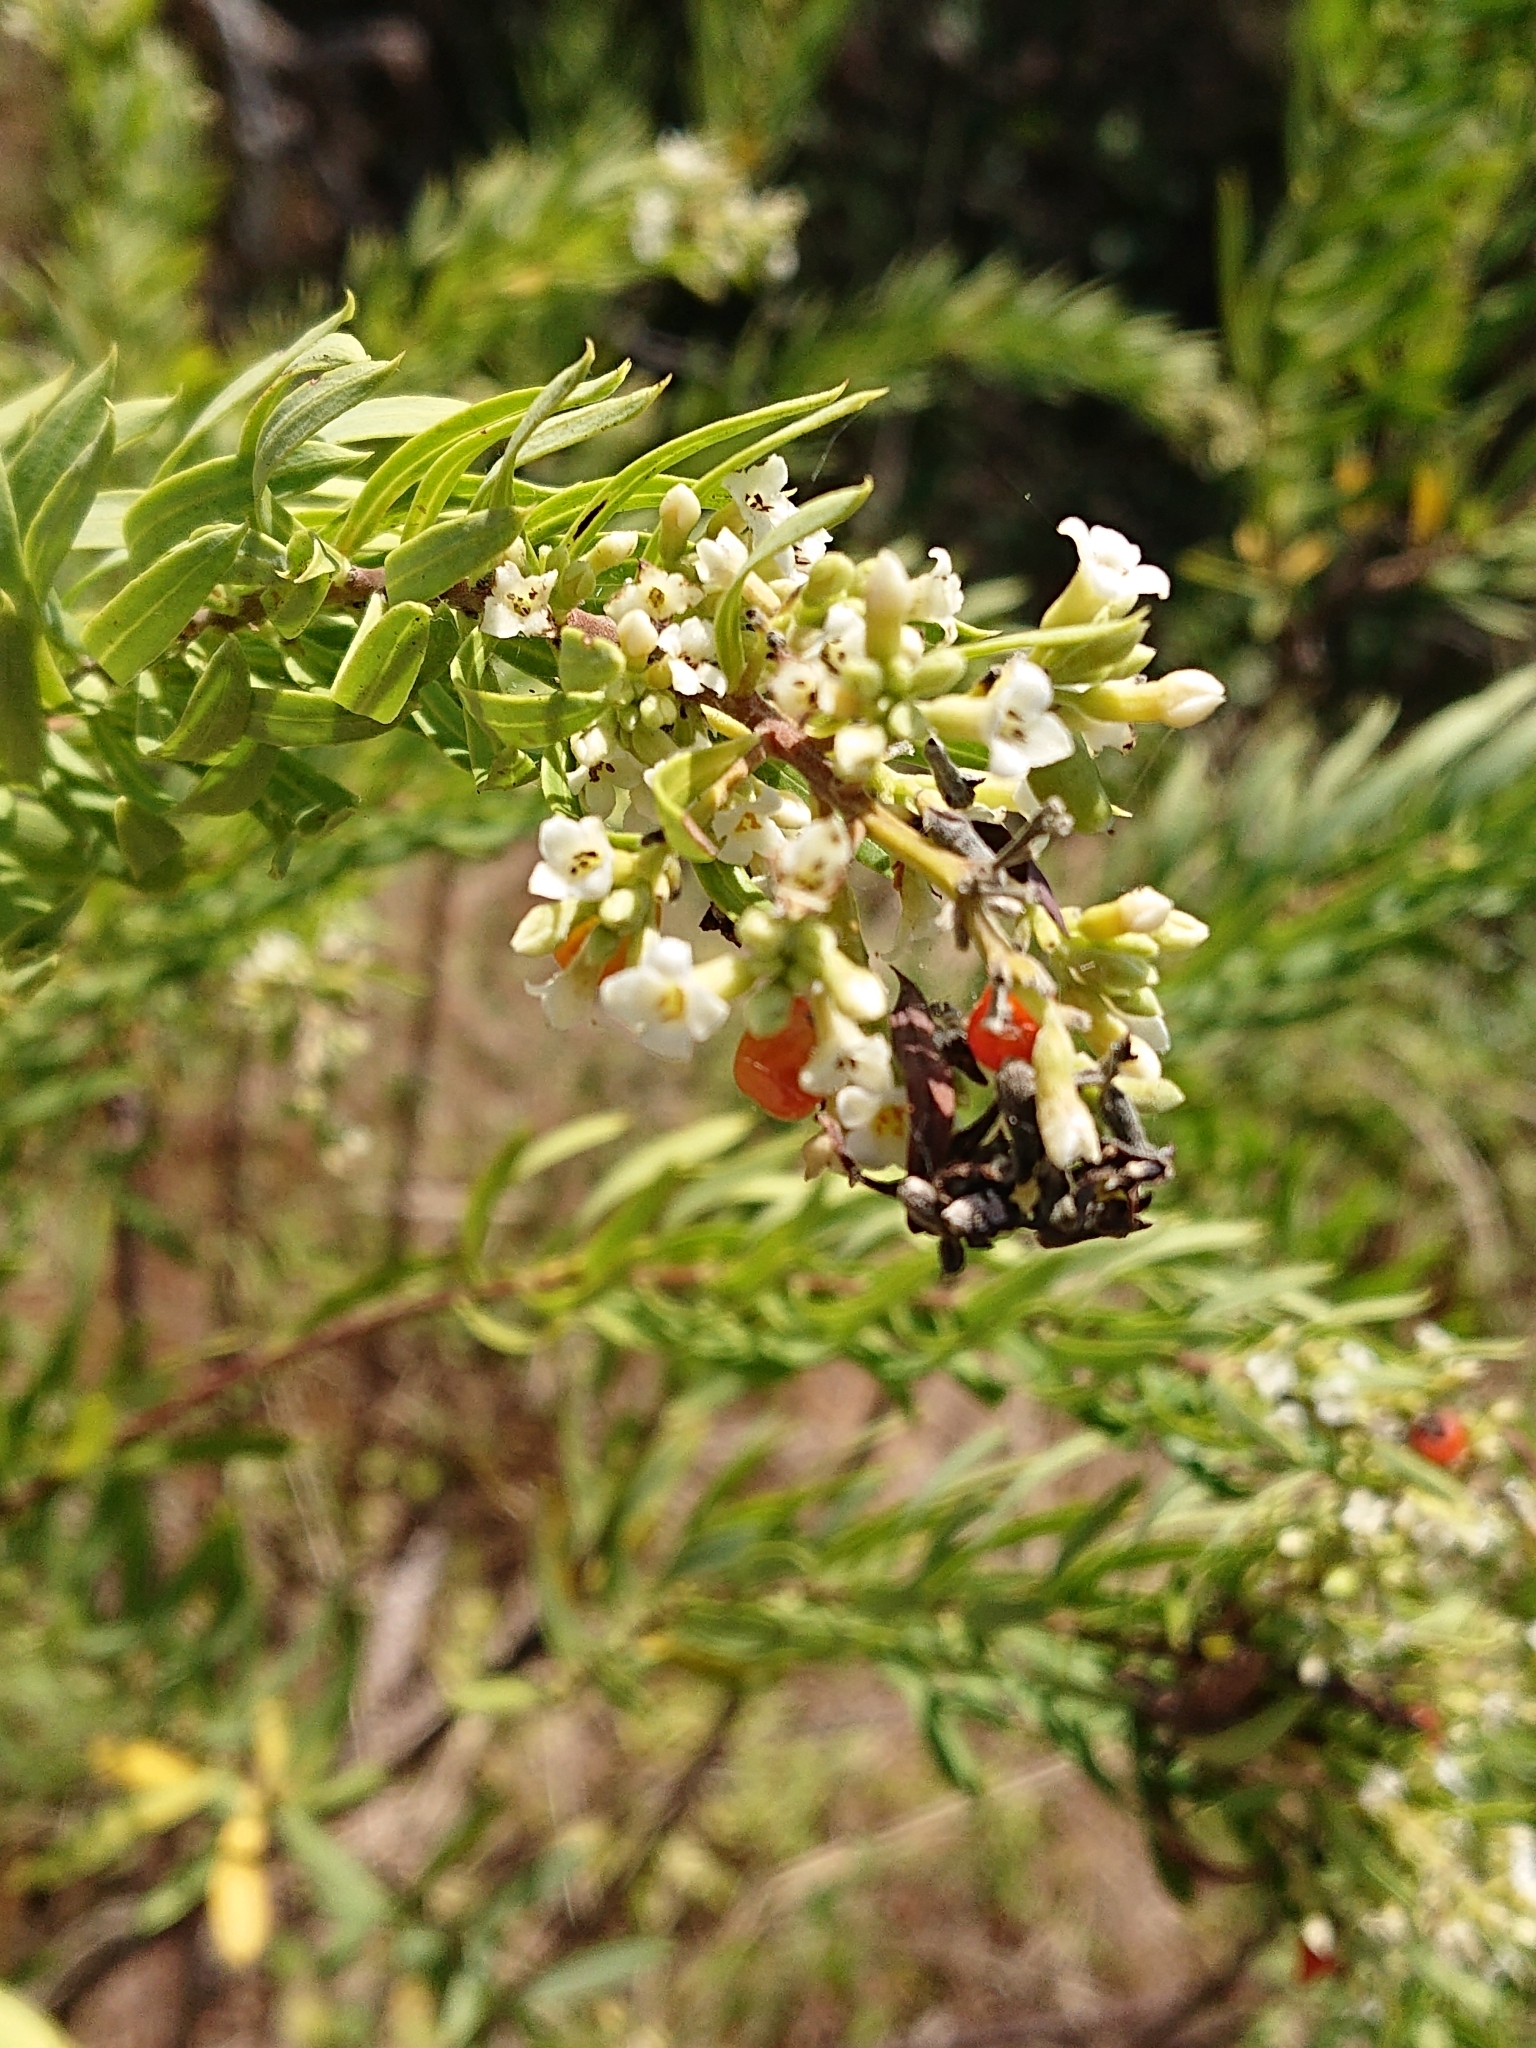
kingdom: Plantae
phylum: Tracheophyta
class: Magnoliopsida
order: Malvales
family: Thymelaeaceae
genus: Daphne
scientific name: Daphne gnidium
